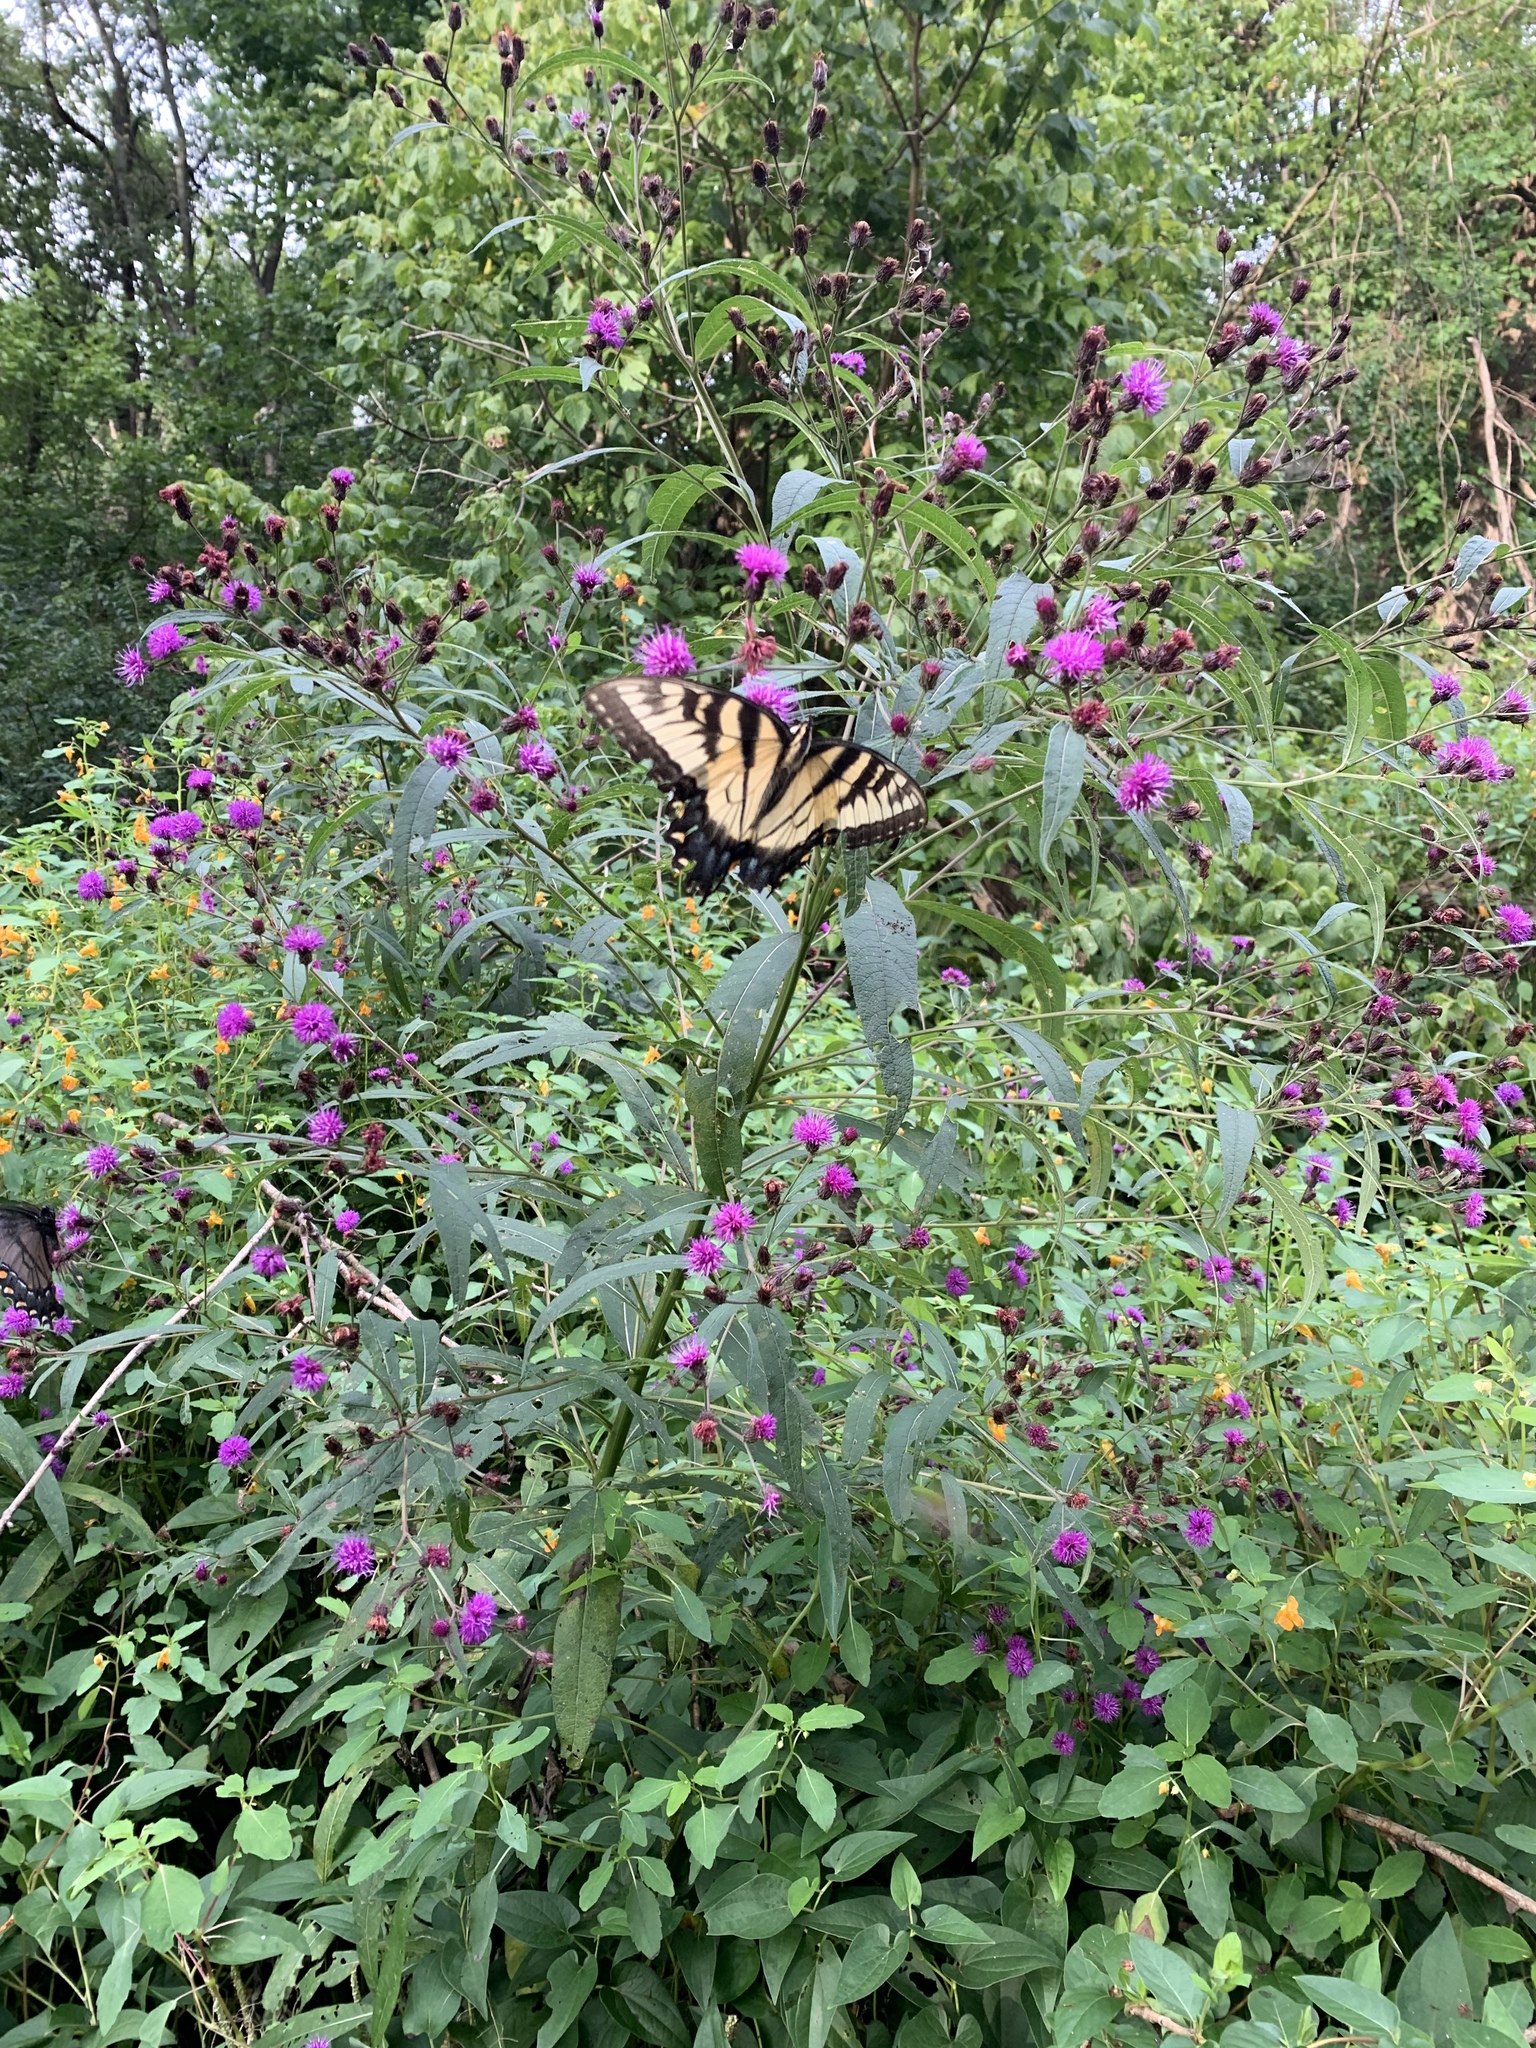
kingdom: Animalia
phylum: Arthropoda
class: Insecta
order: Lepidoptera
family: Papilionidae
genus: Papilio
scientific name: Papilio glaucus
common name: Tiger swallowtail
